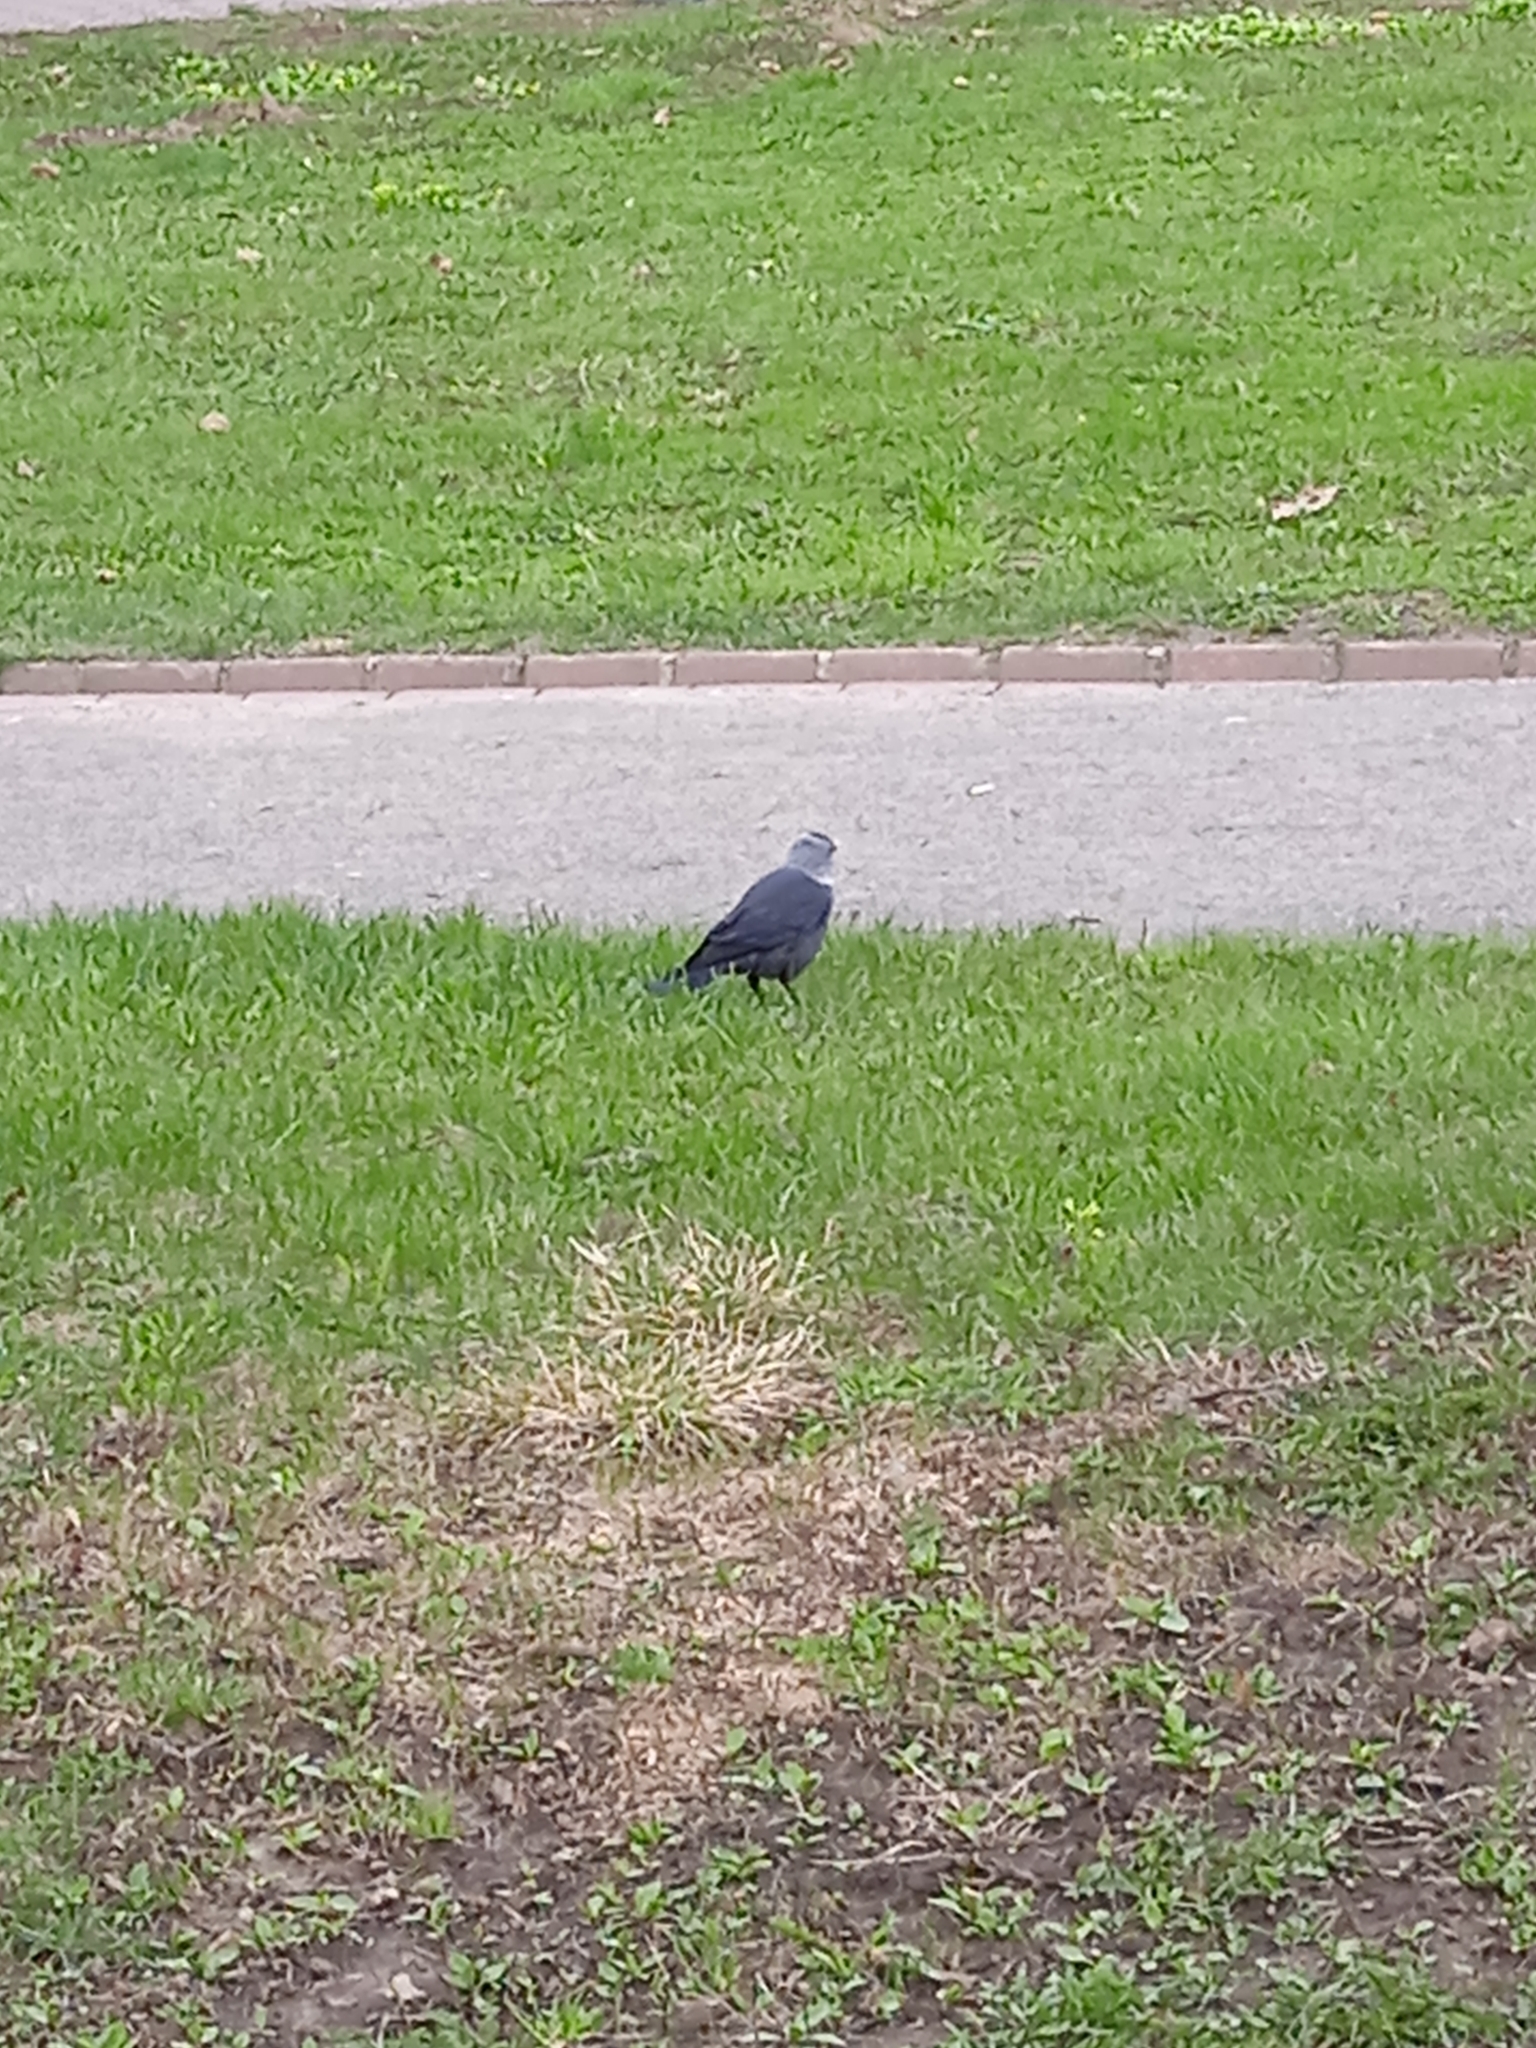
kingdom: Animalia
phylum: Chordata
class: Aves
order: Passeriformes
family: Corvidae
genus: Coloeus
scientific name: Coloeus monedula
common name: Western jackdaw
